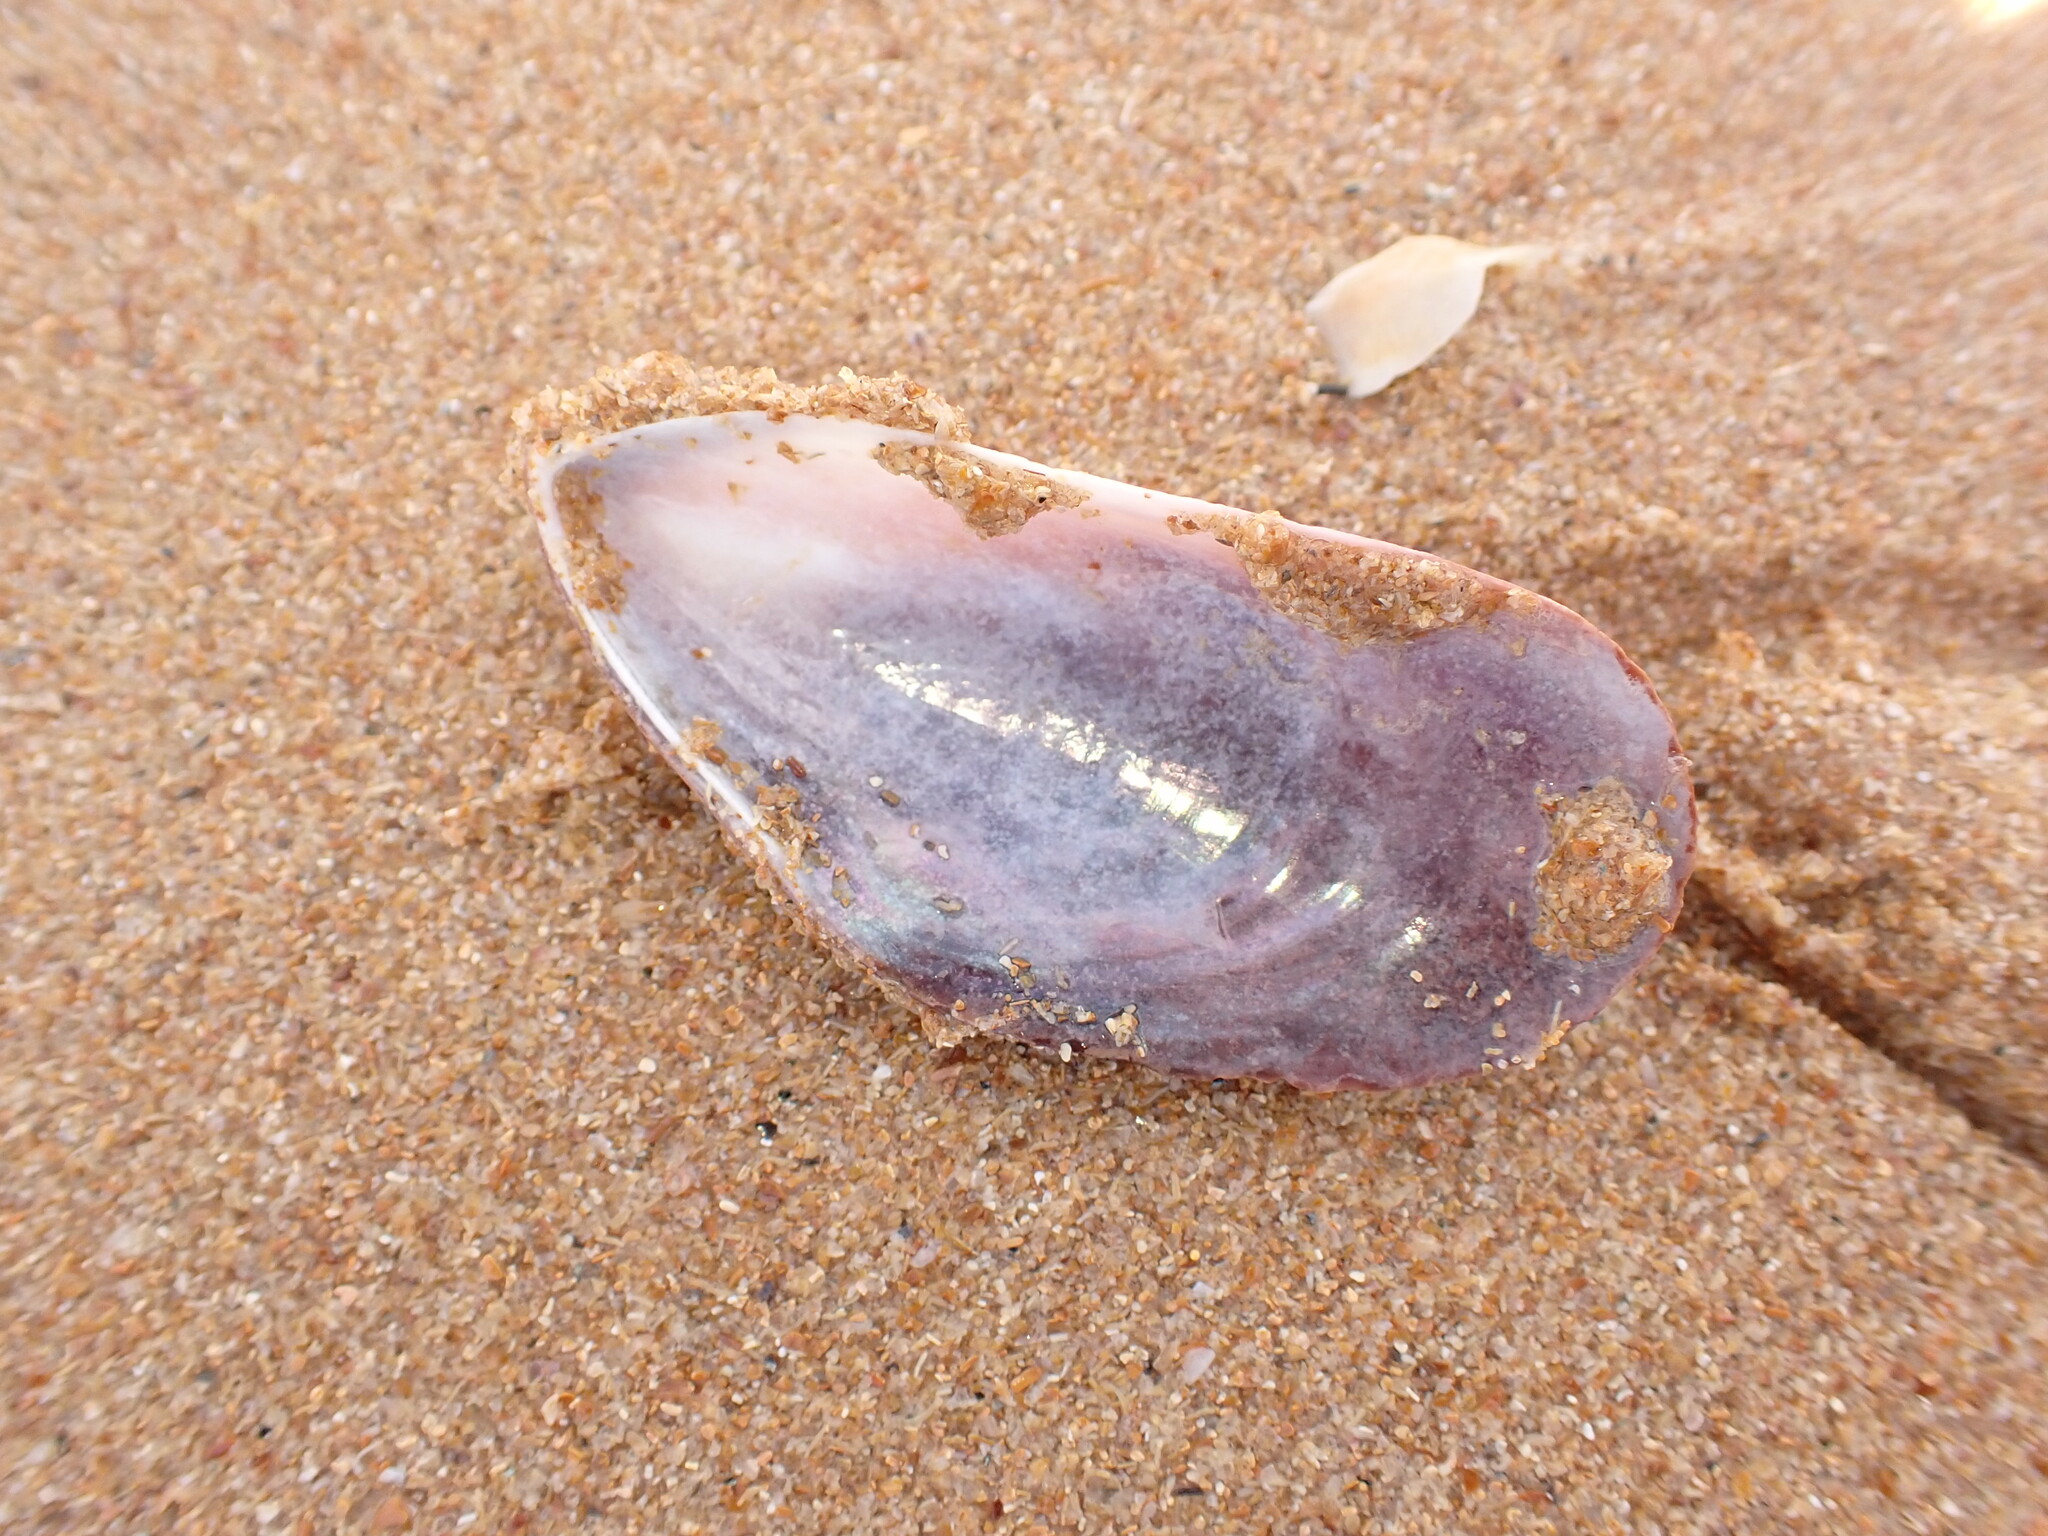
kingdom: Animalia
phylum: Mollusca
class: Bivalvia
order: Mytilida
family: Mytilidae
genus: Perna
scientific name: Perna perna
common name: Mexilhao mussel
